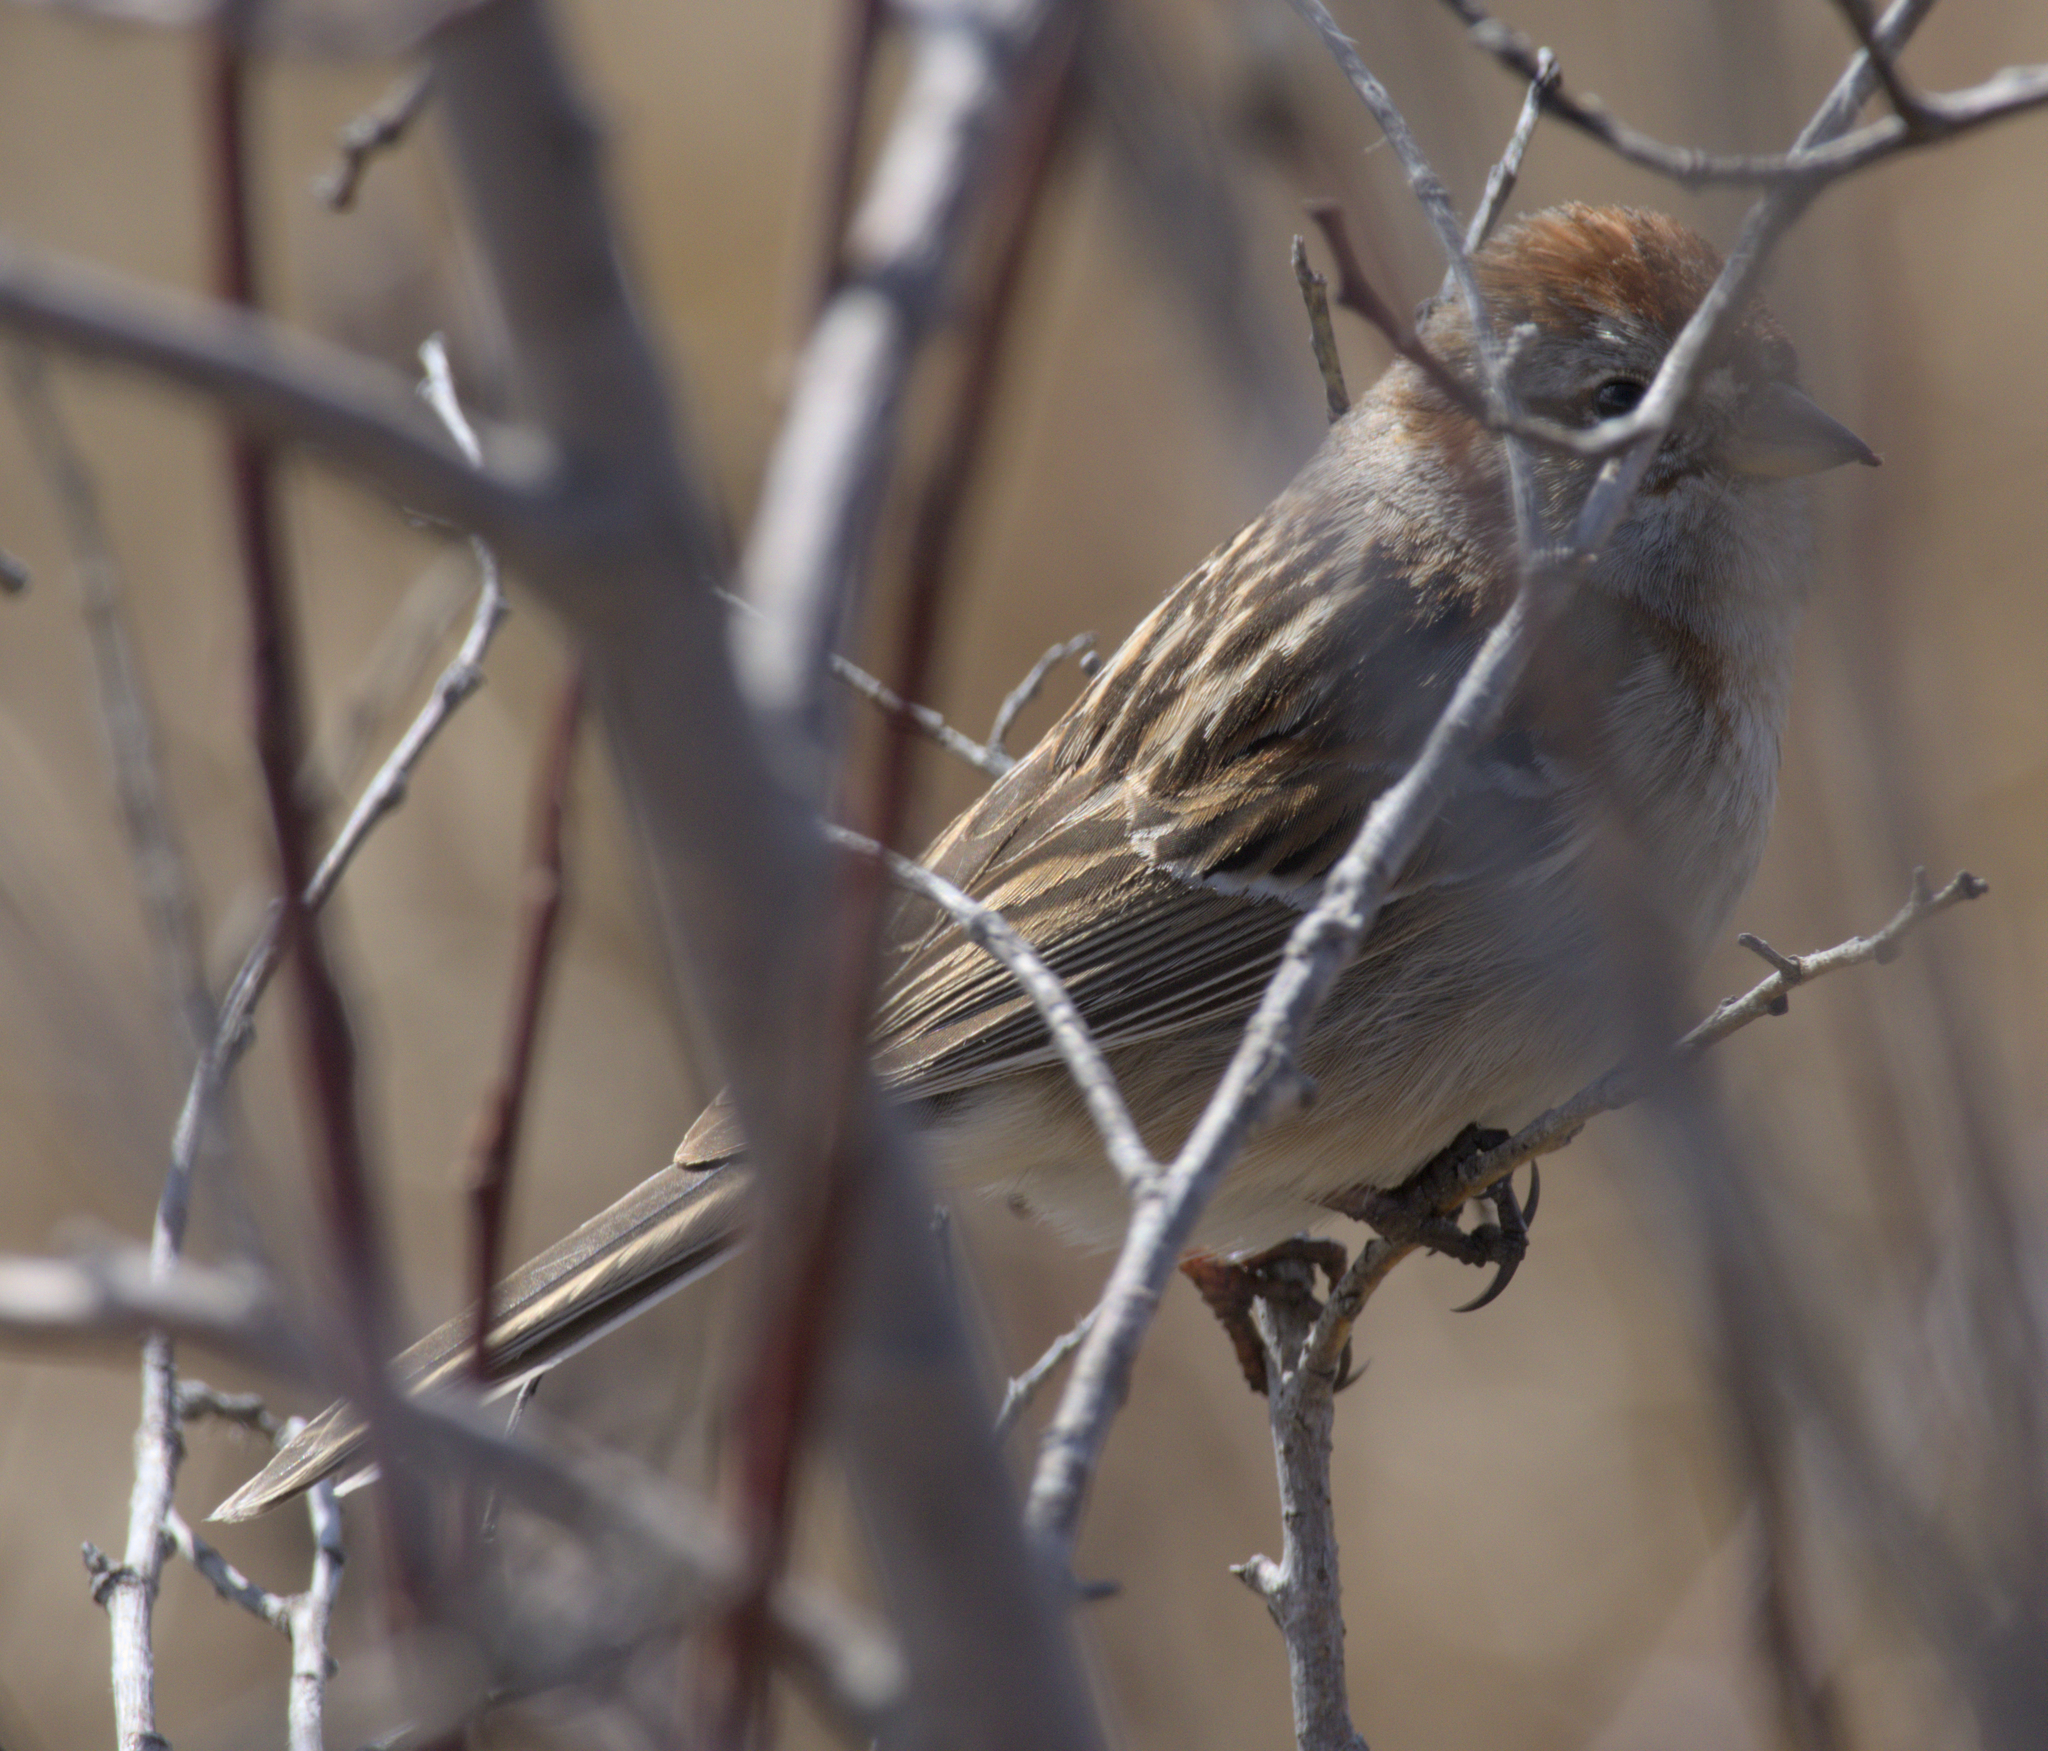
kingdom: Animalia
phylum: Chordata
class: Aves
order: Passeriformes
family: Passerellidae
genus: Spizelloides
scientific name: Spizelloides arborea
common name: American tree sparrow
